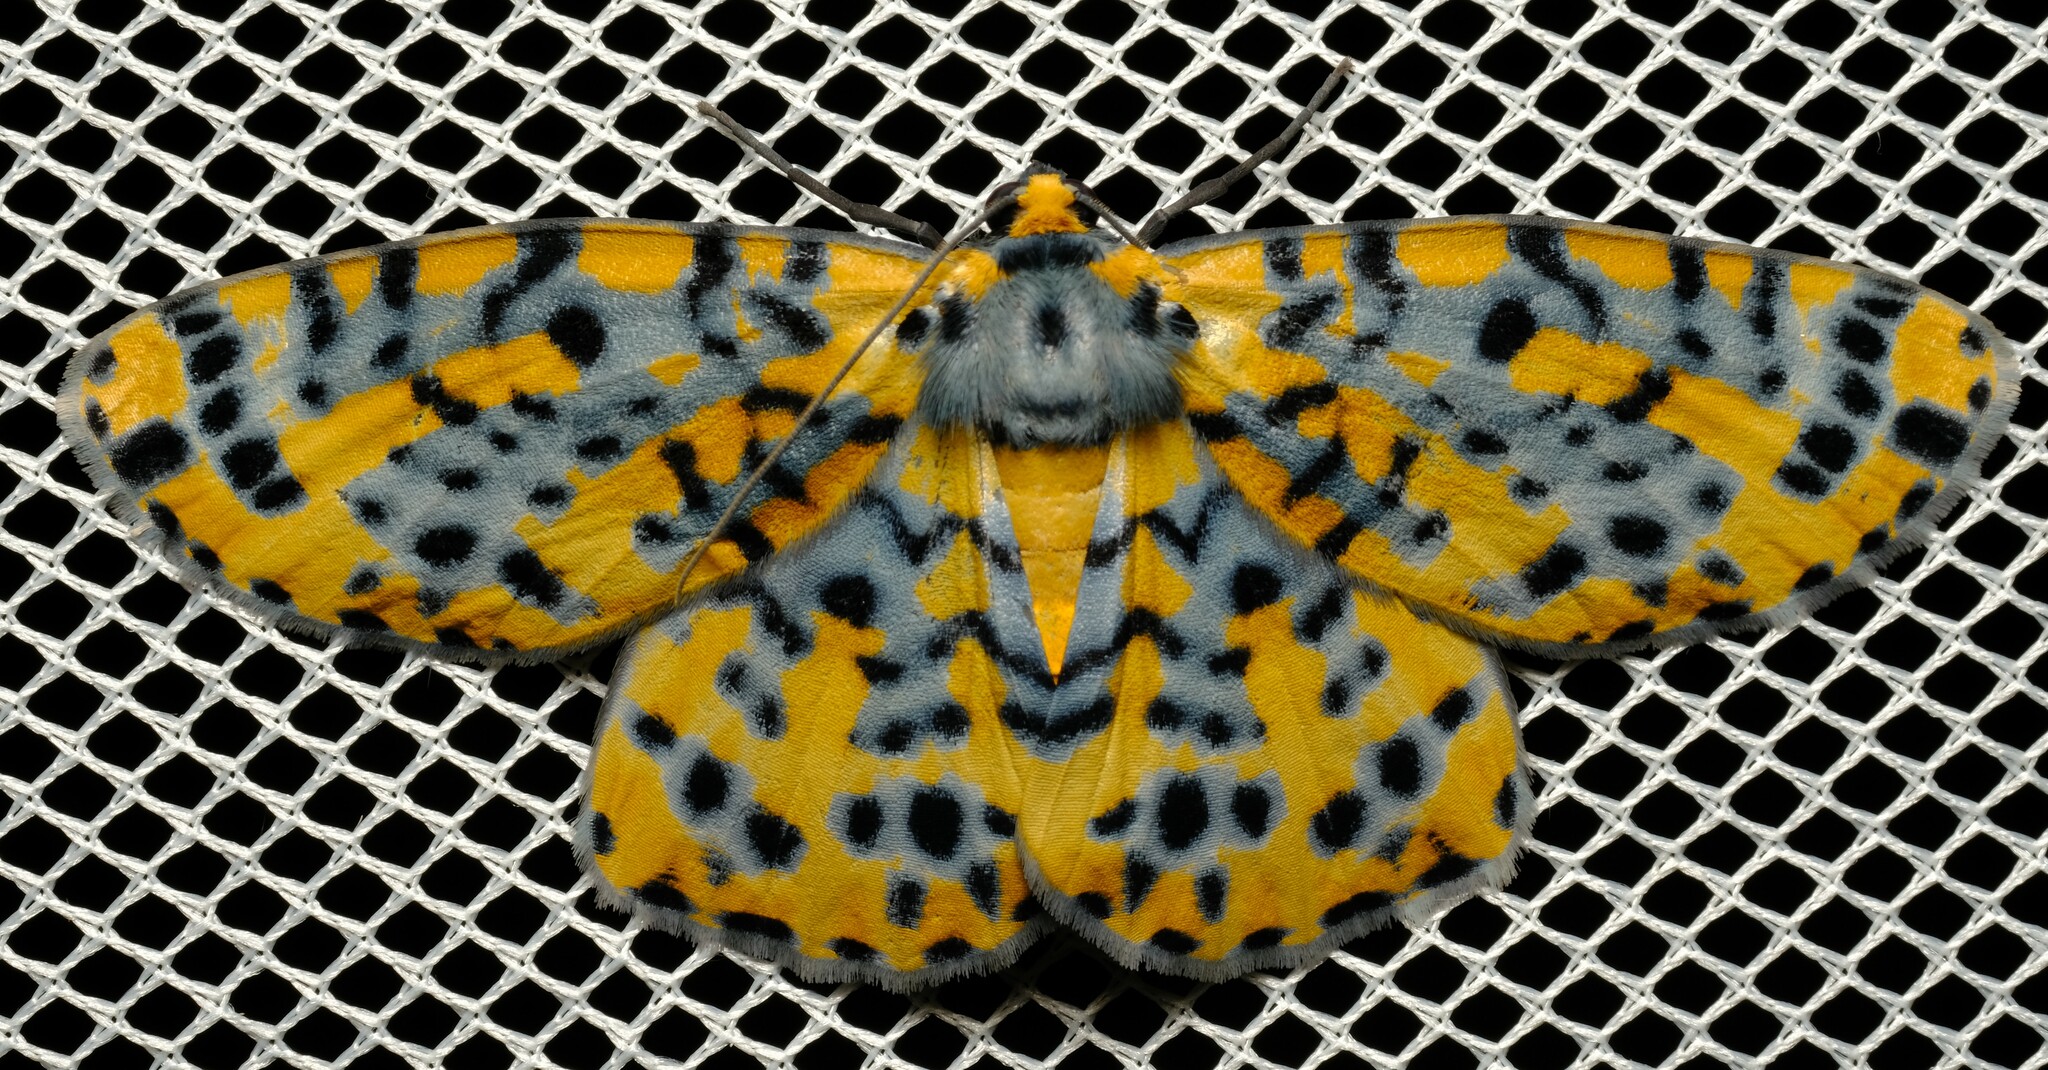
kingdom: Animalia
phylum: Arthropoda
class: Insecta
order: Lepidoptera
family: Geometridae
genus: Bracca
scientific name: Bracca matutinata
